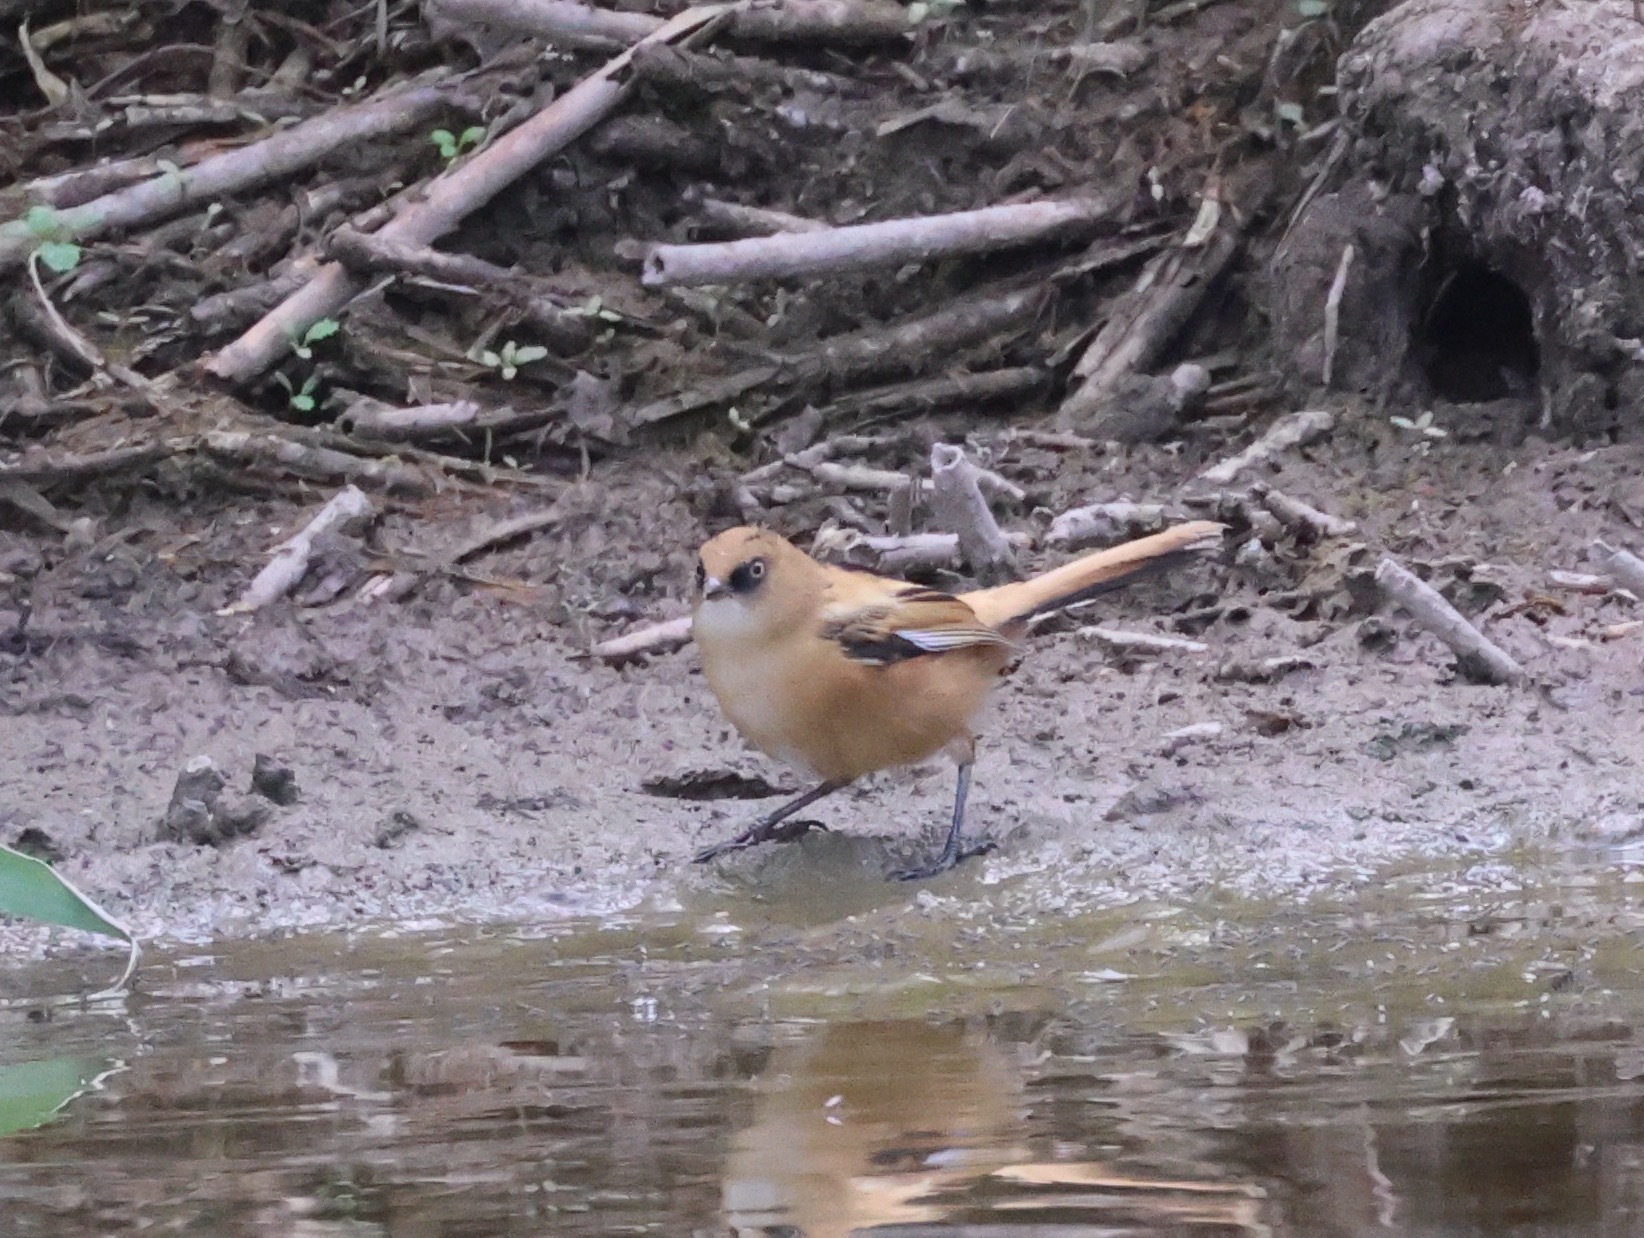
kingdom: Animalia
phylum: Chordata
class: Aves
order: Passeriformes
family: Panuridae
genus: Panurus
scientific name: Panurus biarmicus
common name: Bearded reedling
